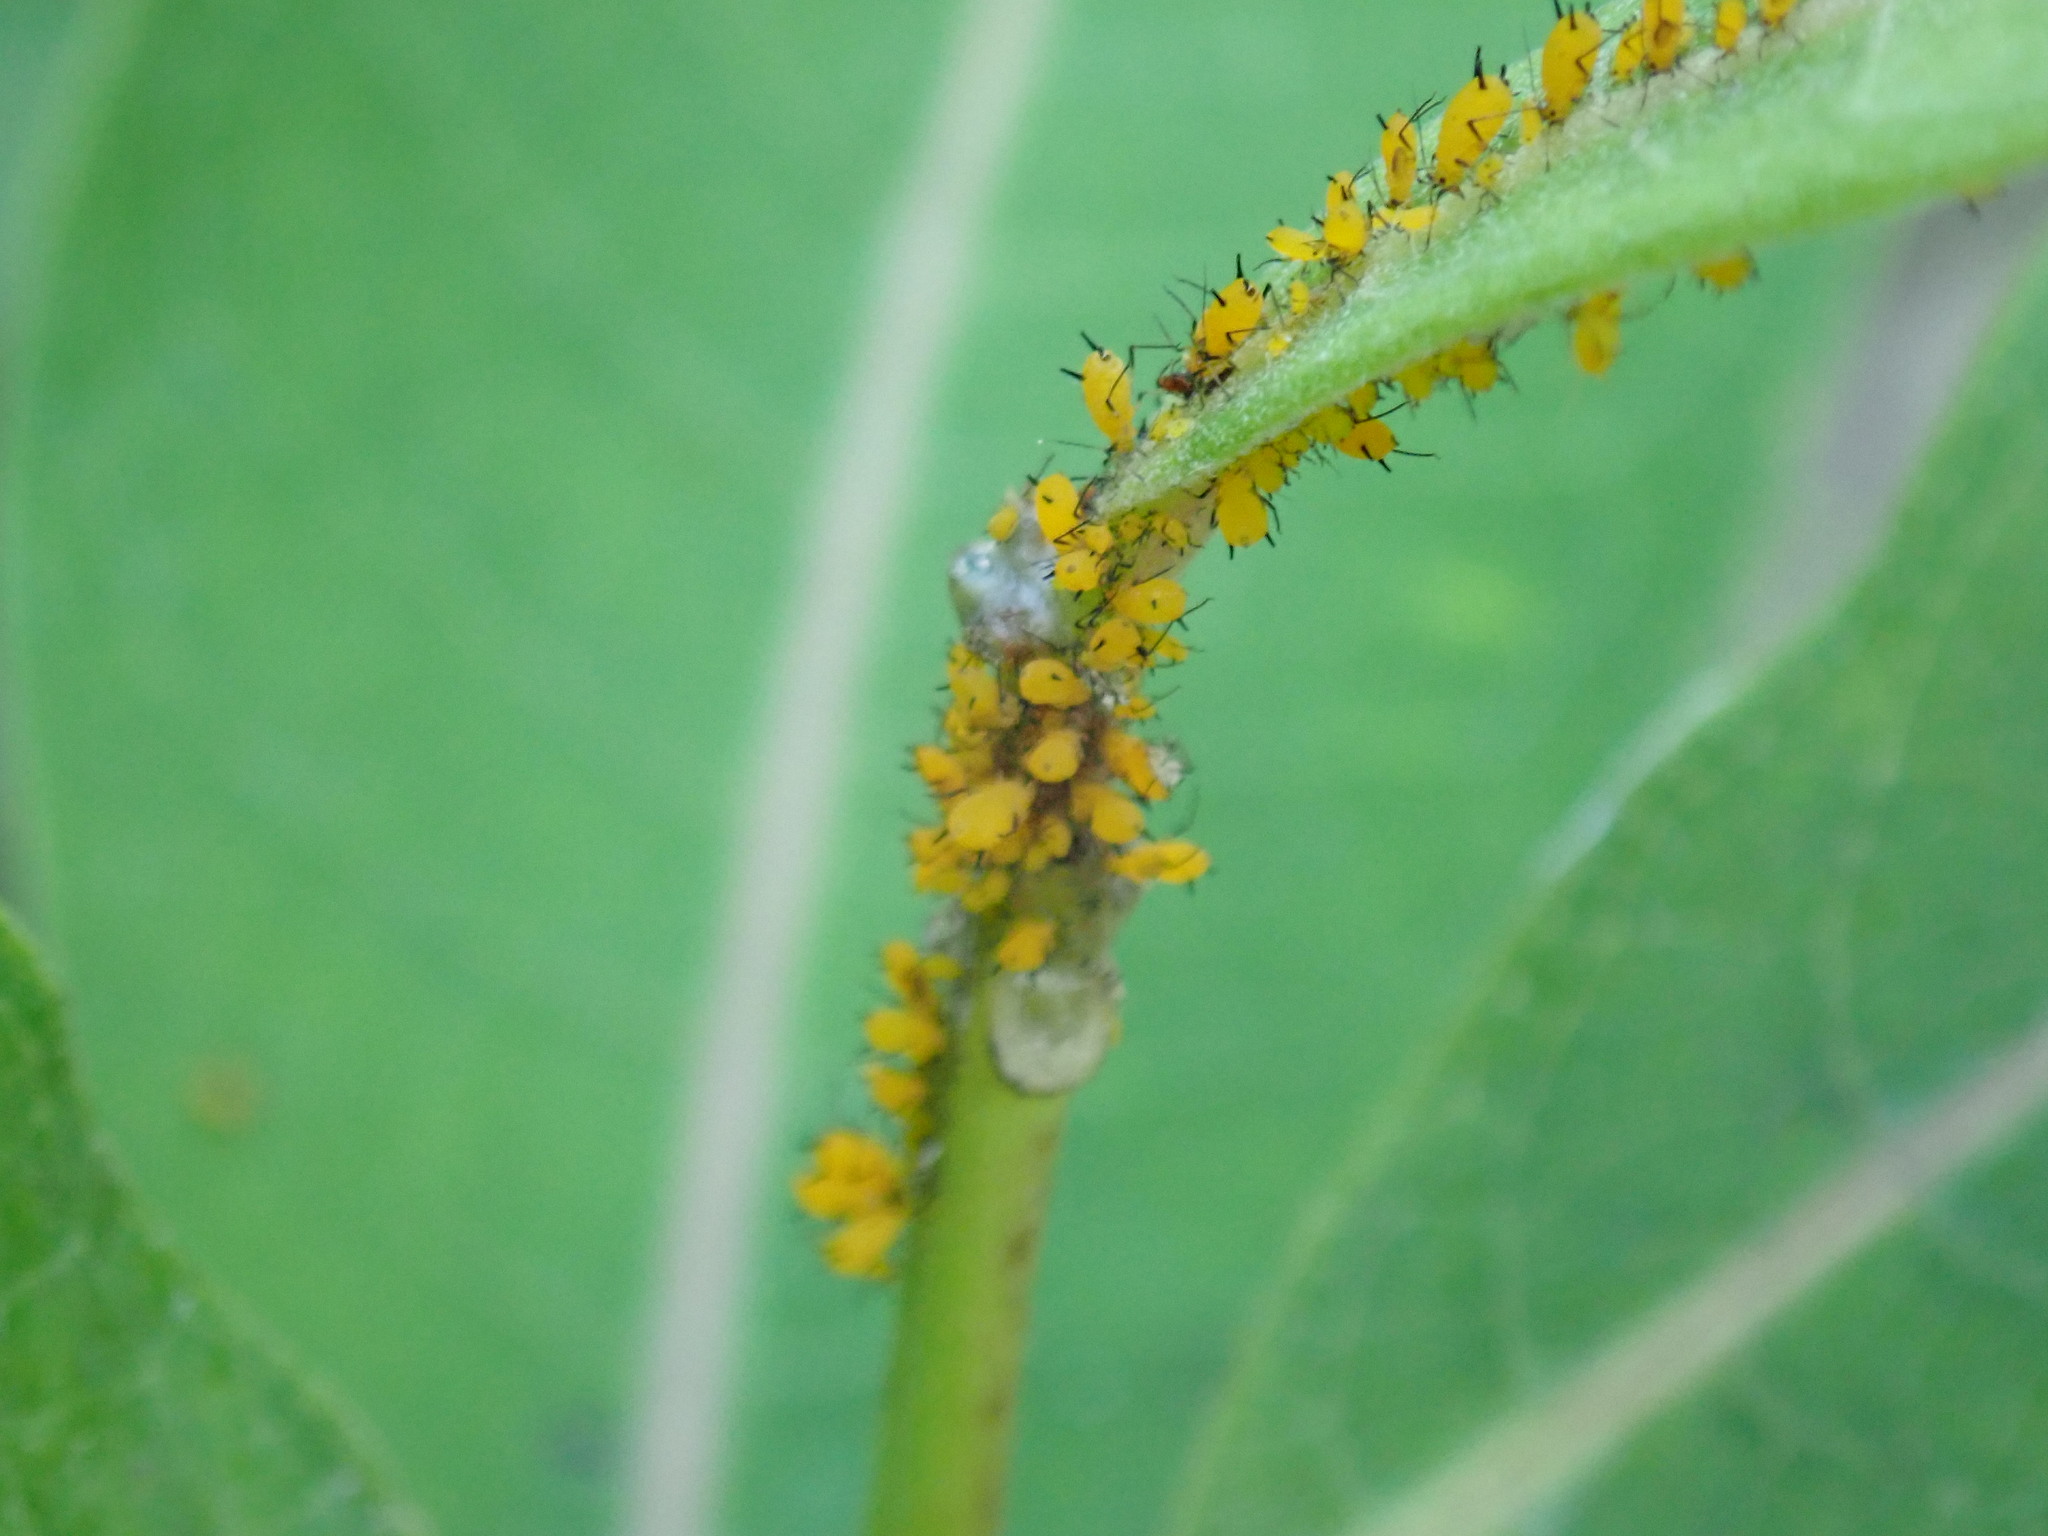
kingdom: Animalia
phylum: Arthropoda
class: Insecta
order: Hemiptera
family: Aphididae
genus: Aphis
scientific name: Aphis nerii
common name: Oleander aphid
